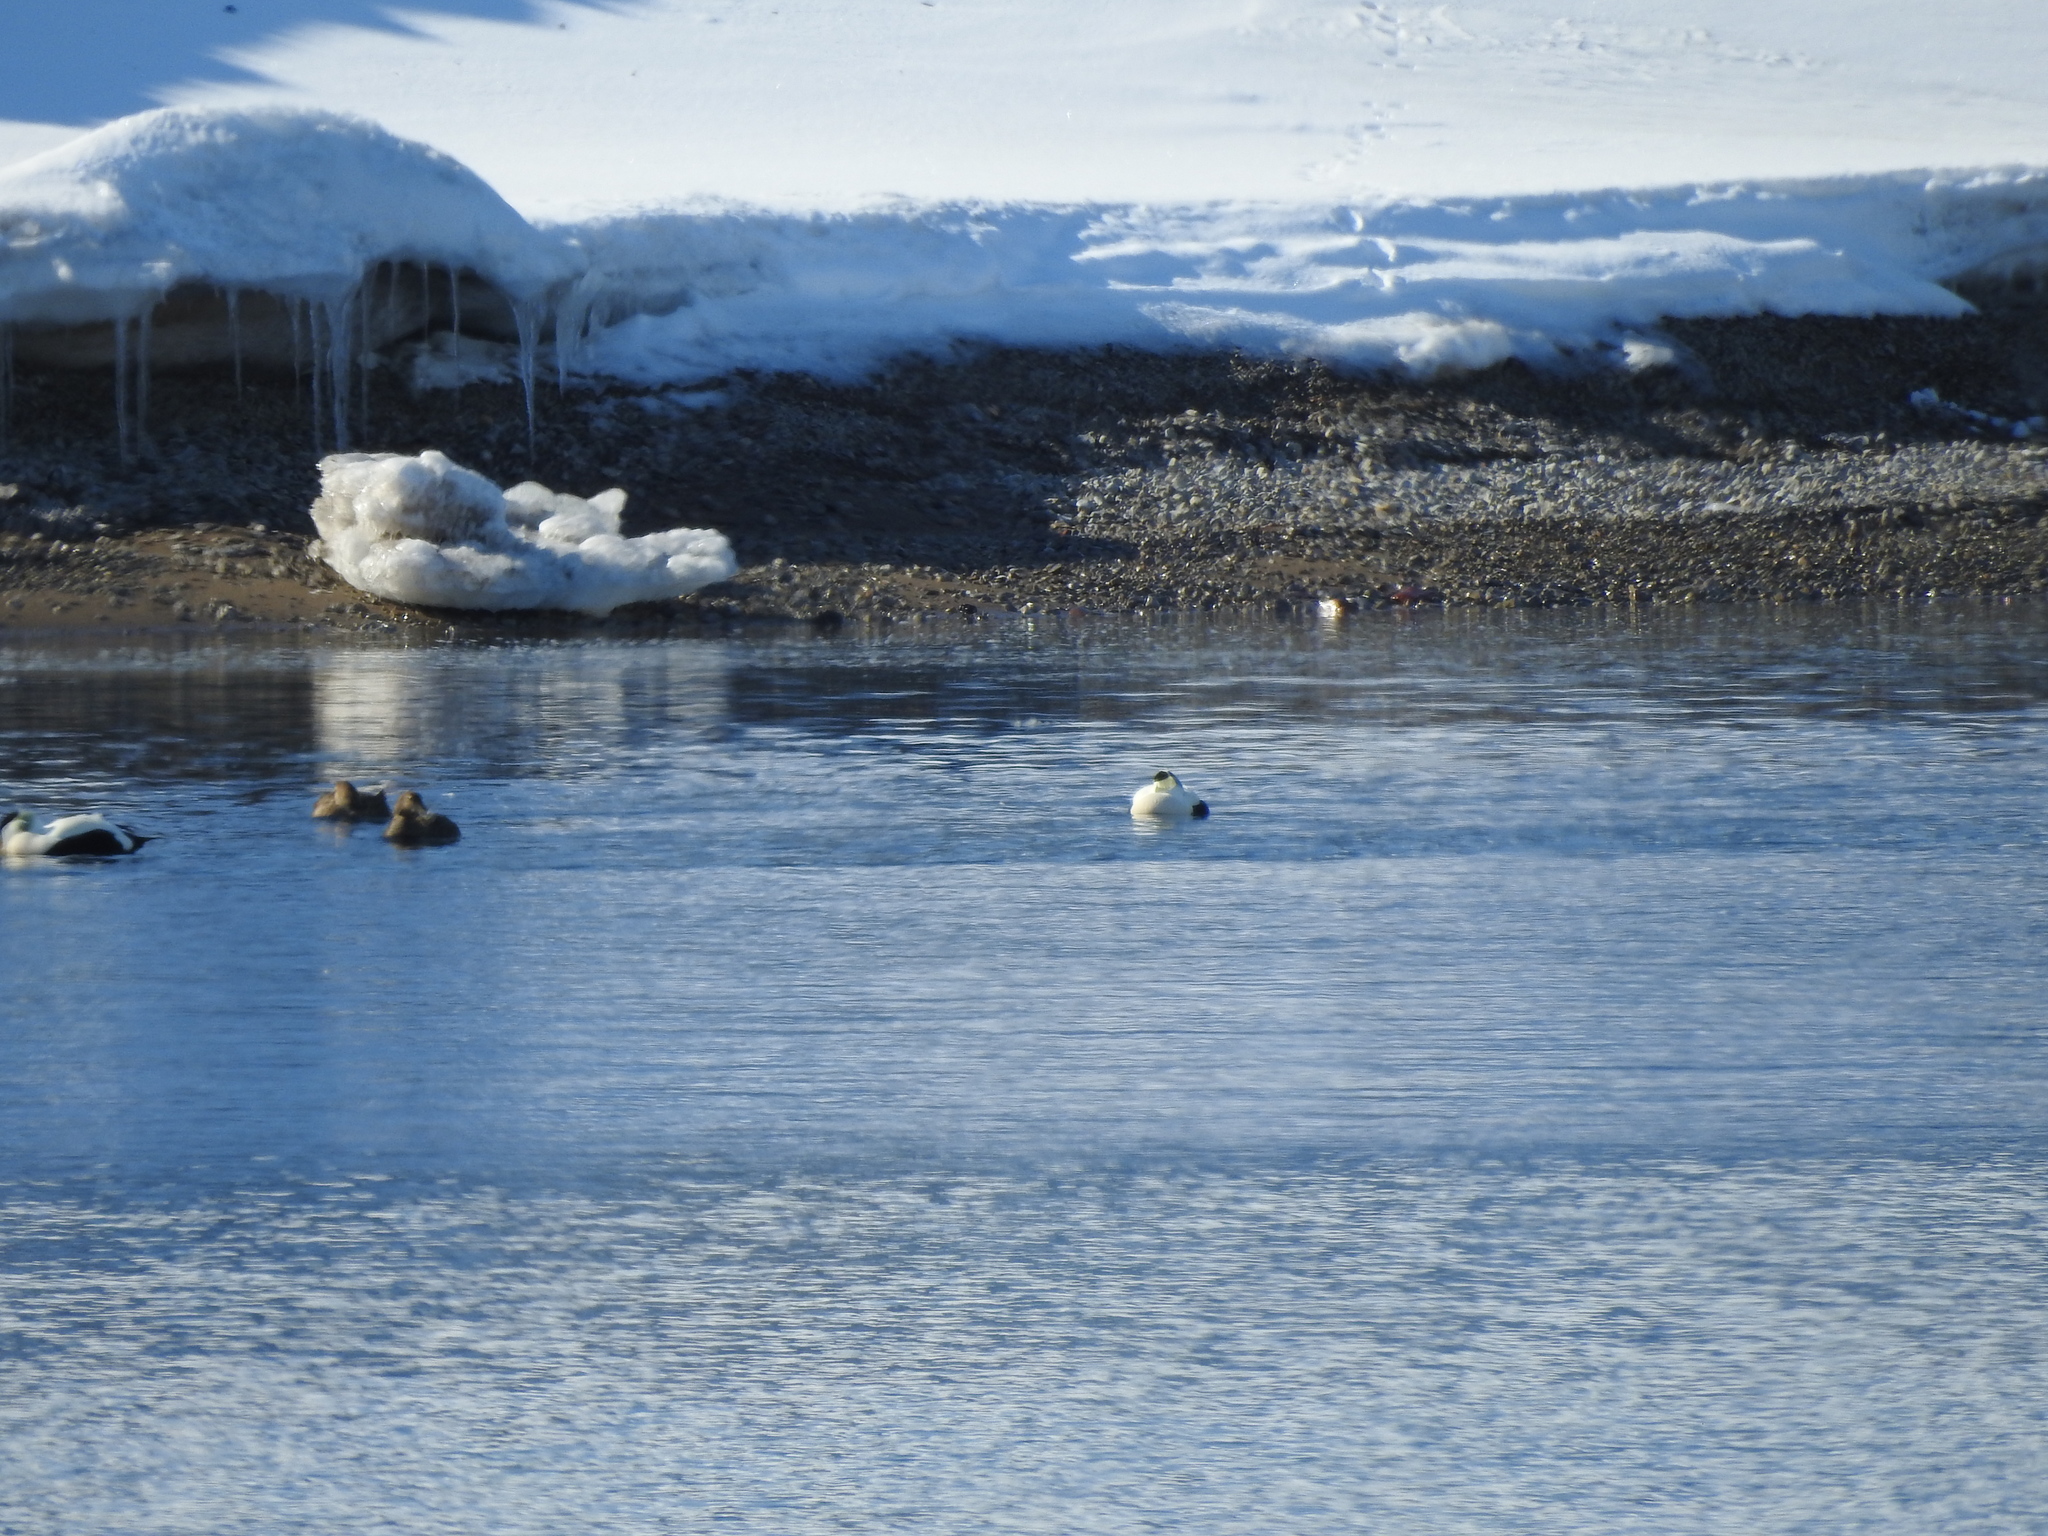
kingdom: Animalia
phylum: Chordata
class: Aves
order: Anseriformes
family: Anatidae
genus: Somateria
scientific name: Somateria mollissima
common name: Common eider
